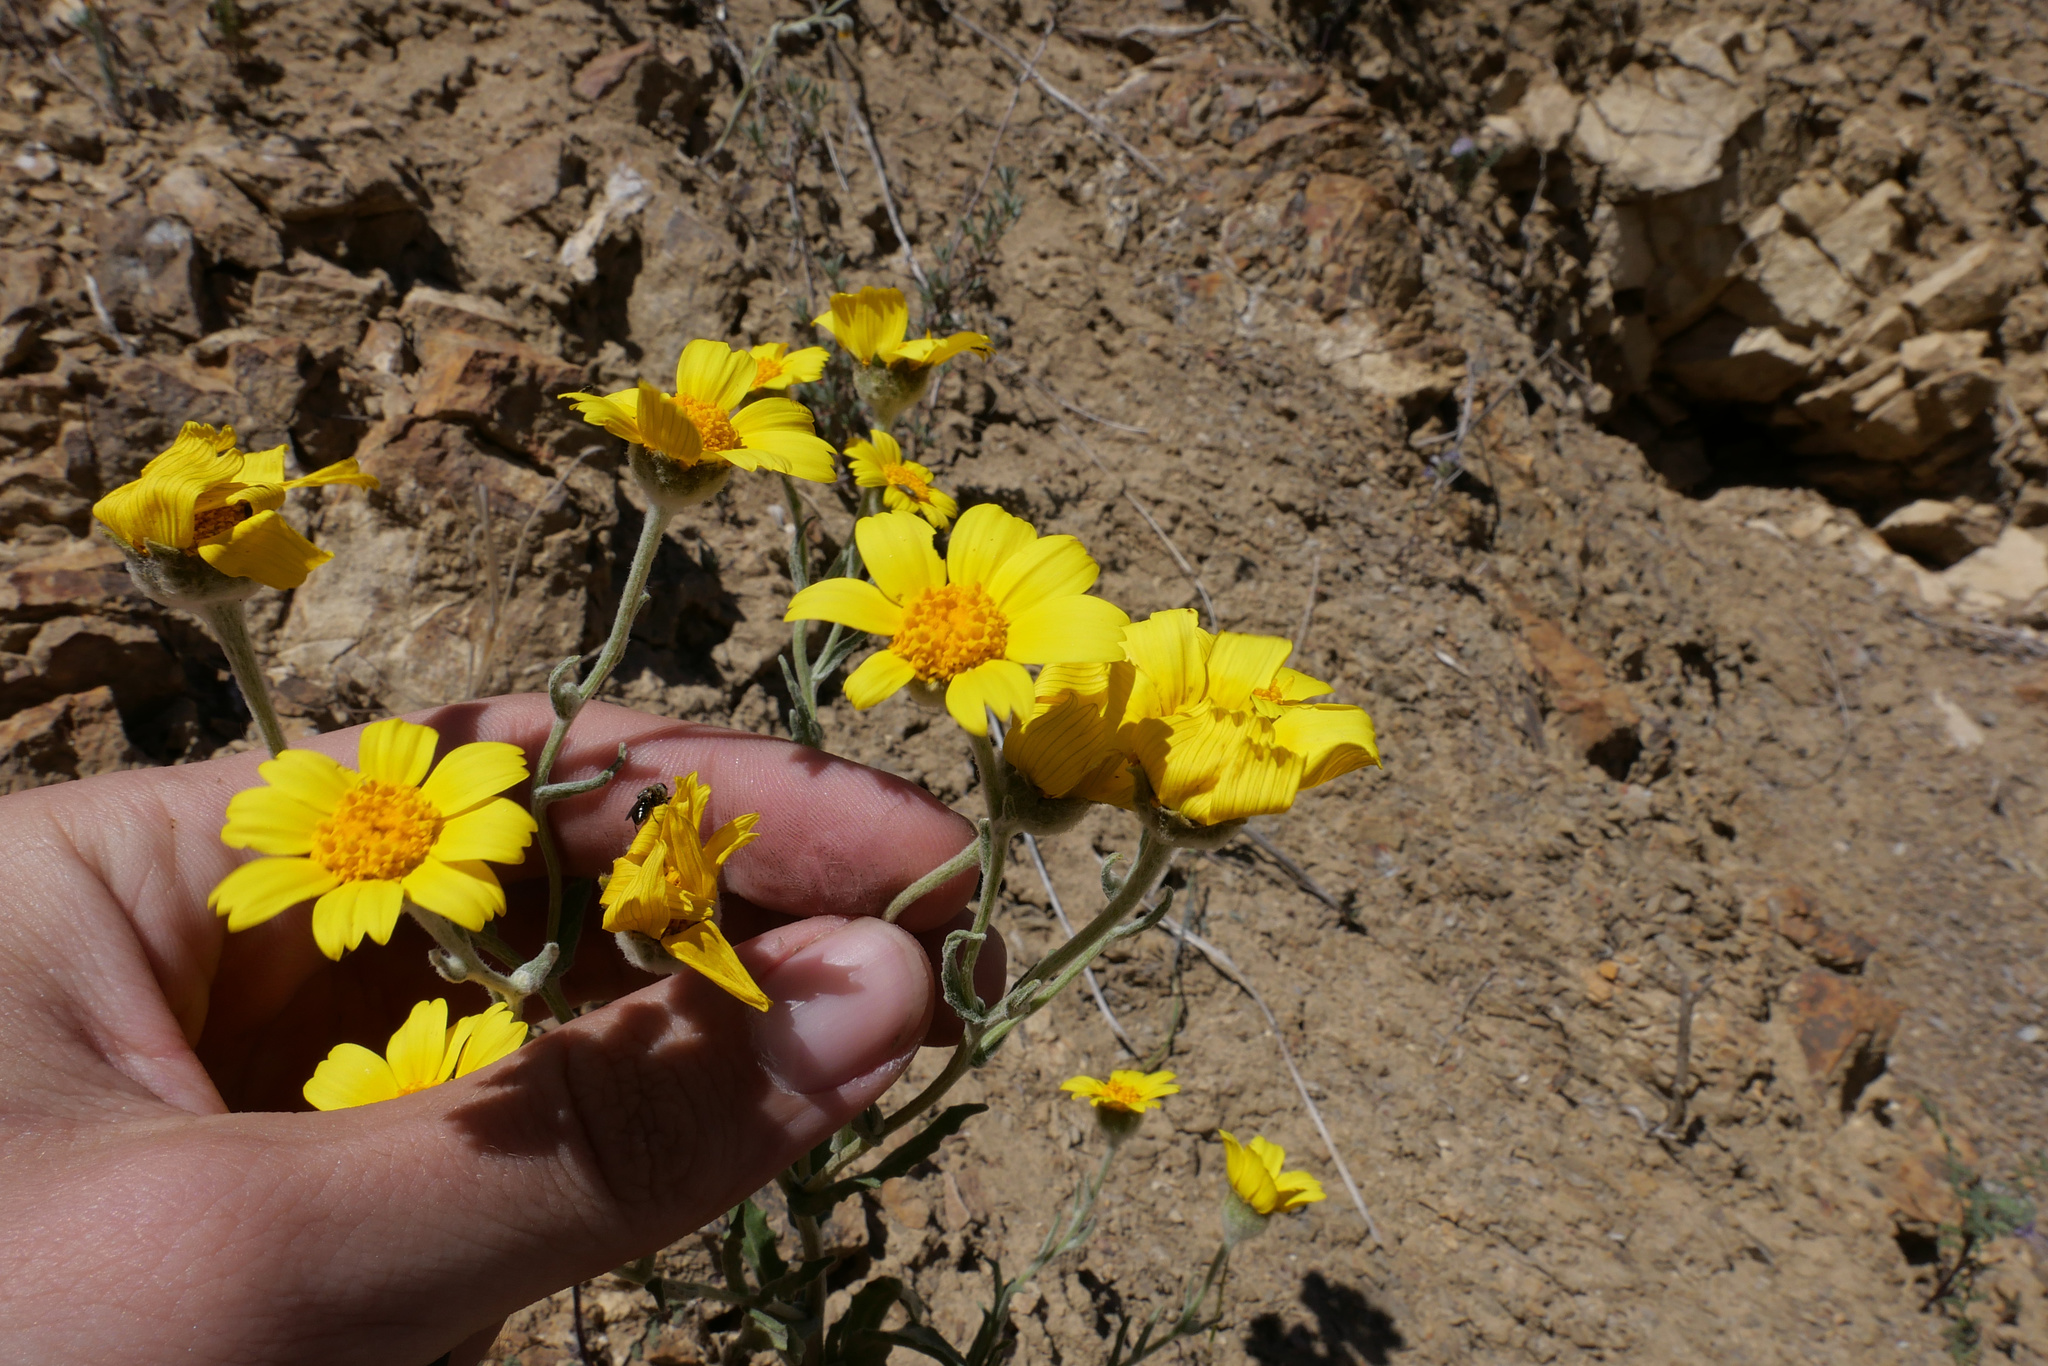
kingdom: Plantae
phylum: Tracheophyta
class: Magnoliopsida
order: Asterales
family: Asteraceae
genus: Monolopia
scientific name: Monolopia lanceolata
